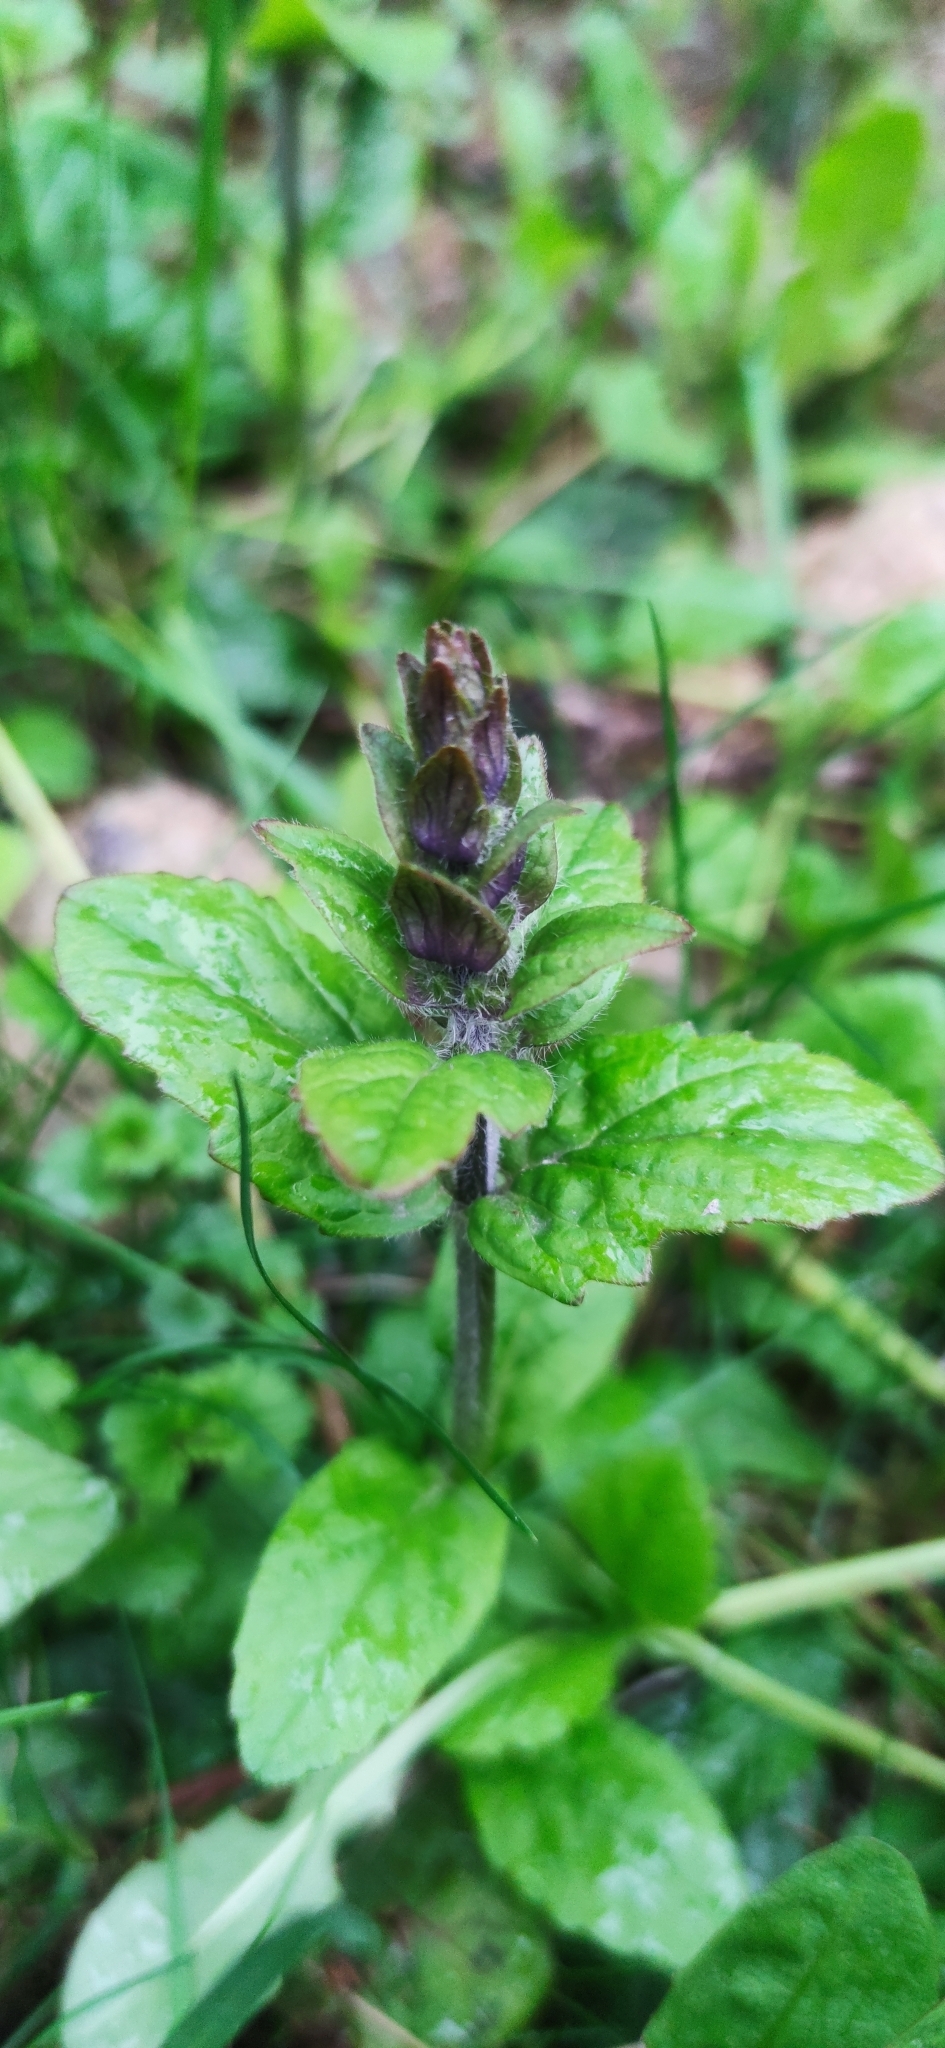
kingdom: Plantae
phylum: Tracheophyta
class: Magnoliopsida
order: Lamiales
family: Lamiaceae
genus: Ajuga
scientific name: Ajuga reptans
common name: Bugle
